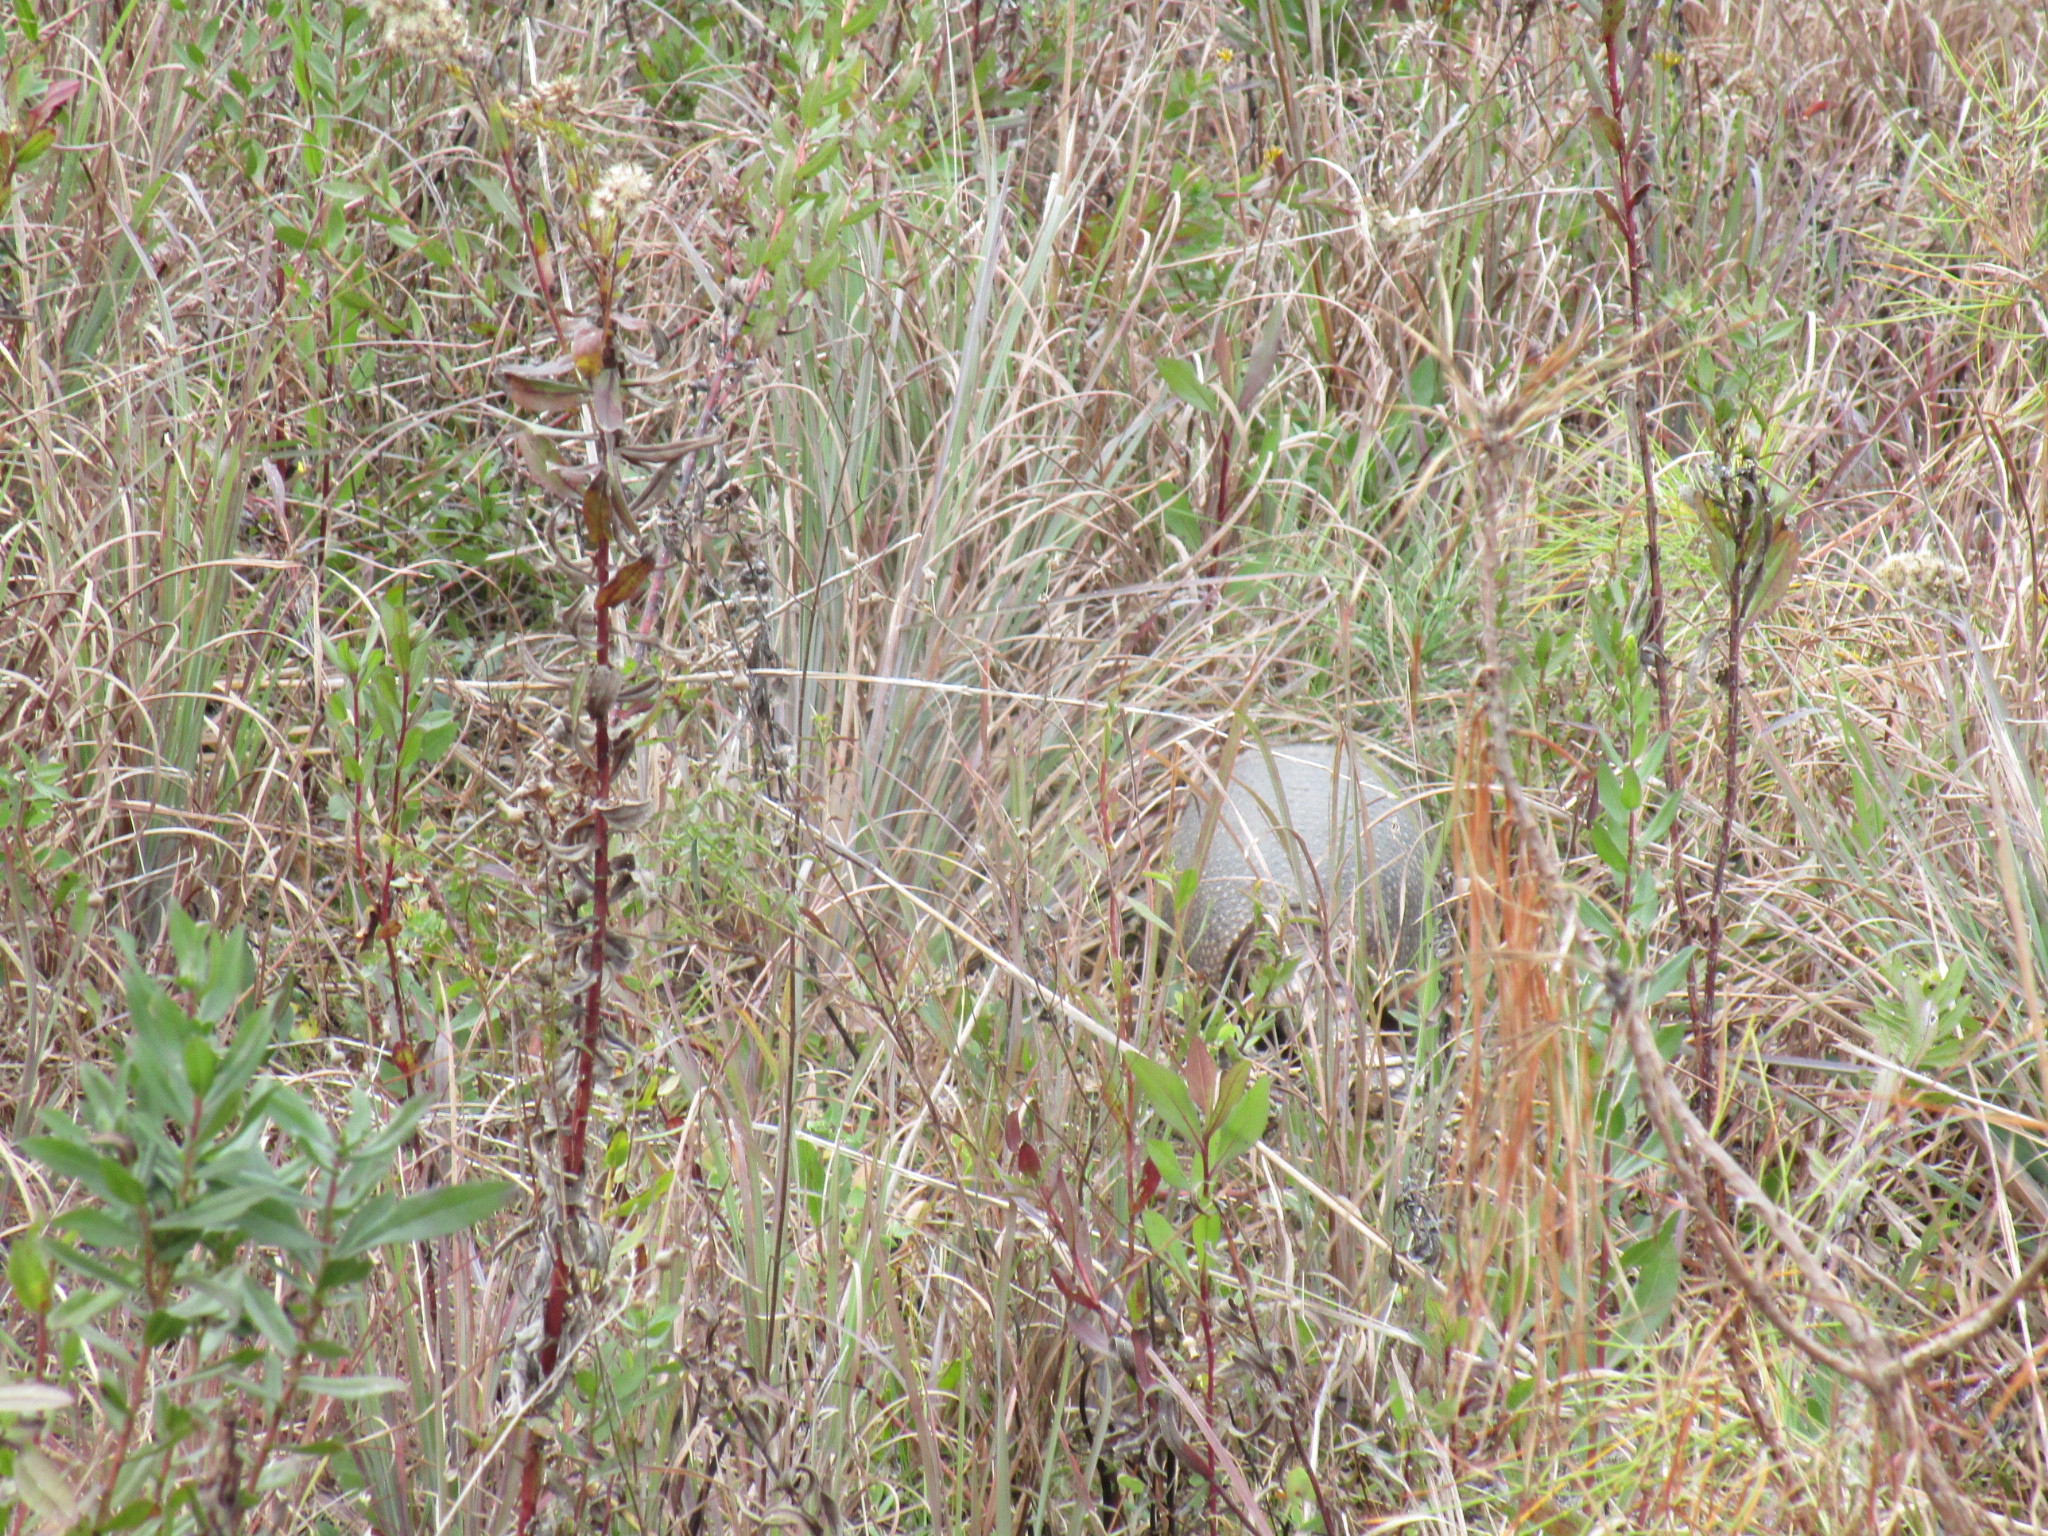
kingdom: Animalia
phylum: Chordata
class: Mammalia
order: Cingulata
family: Dasypodidae
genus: Dasypus
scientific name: Dasypus novemcinctus
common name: Nine-banded armadillo
